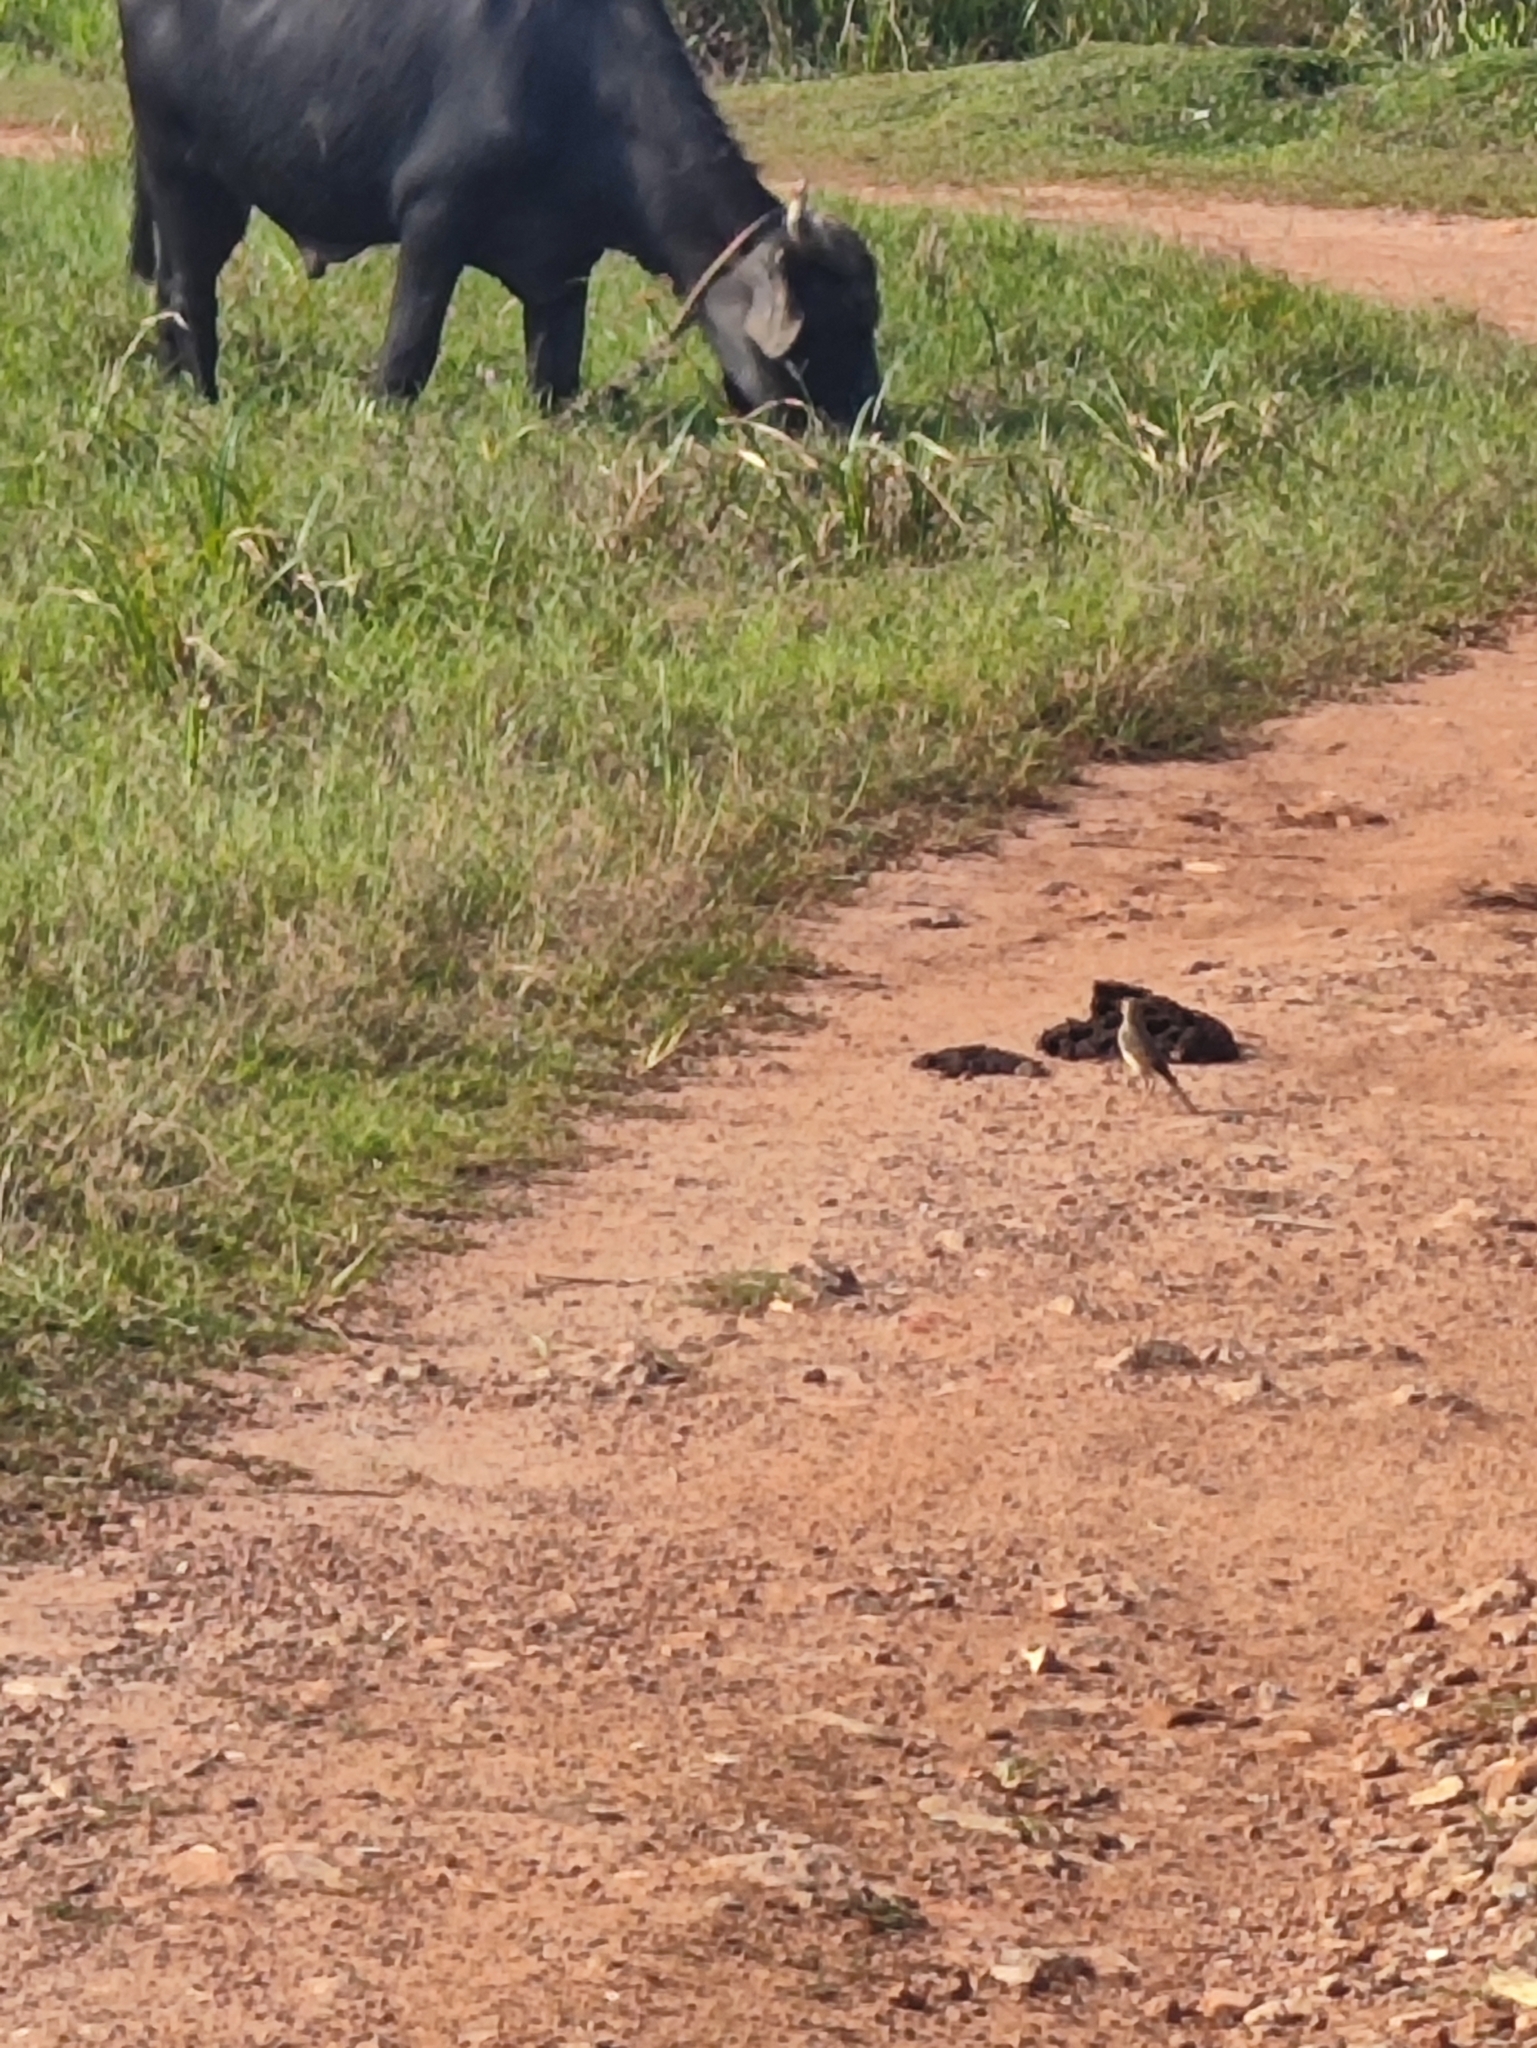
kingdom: Animalia
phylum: Chordata
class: Aves
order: Passeriformes
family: Motacillidae
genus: Motacilla
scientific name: Motacilla flava
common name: Western yellow wagtail
